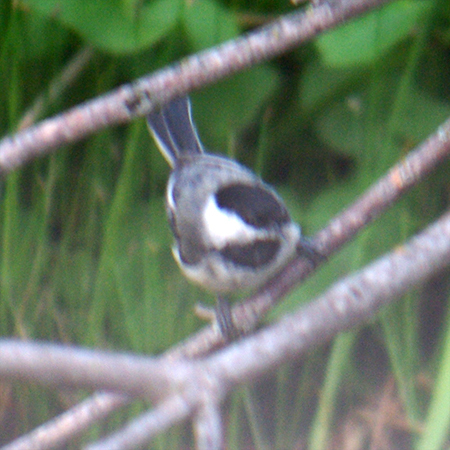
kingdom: Animalia
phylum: Chordata
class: Aves
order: Passeriformes
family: Paridae
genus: Poecile
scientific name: Poecile atricapillus
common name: Black-capped chickadee
